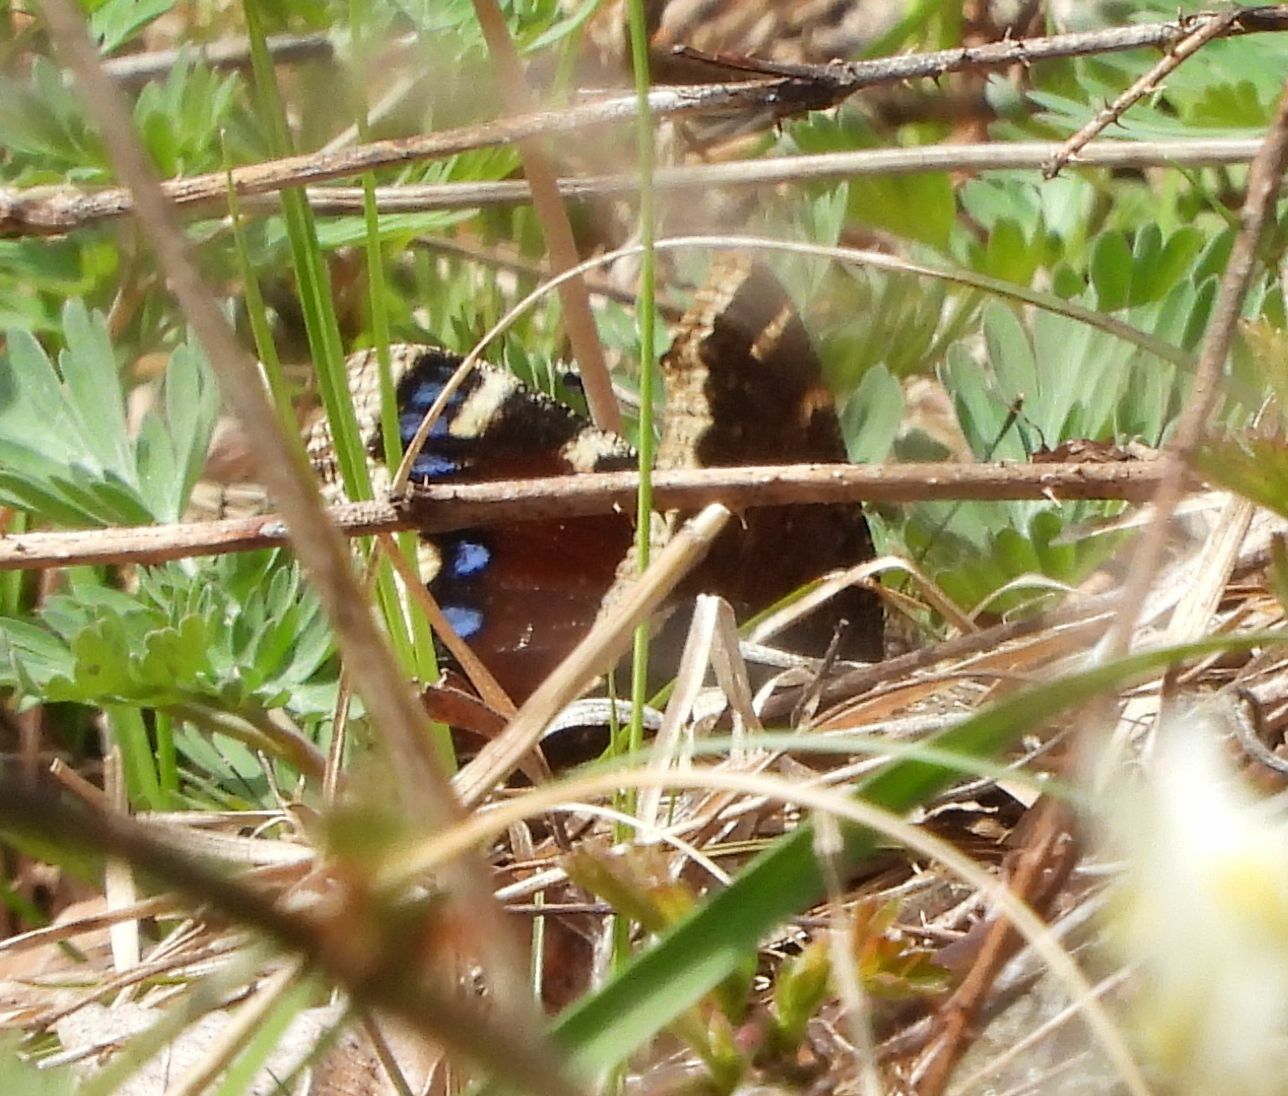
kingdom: Animalia
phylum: Arthropoda
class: Insecta
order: Lepidoptera
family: Nymphalidae
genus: Nymphalis
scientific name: Nymphalis antiopa
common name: Camberwell beauty
